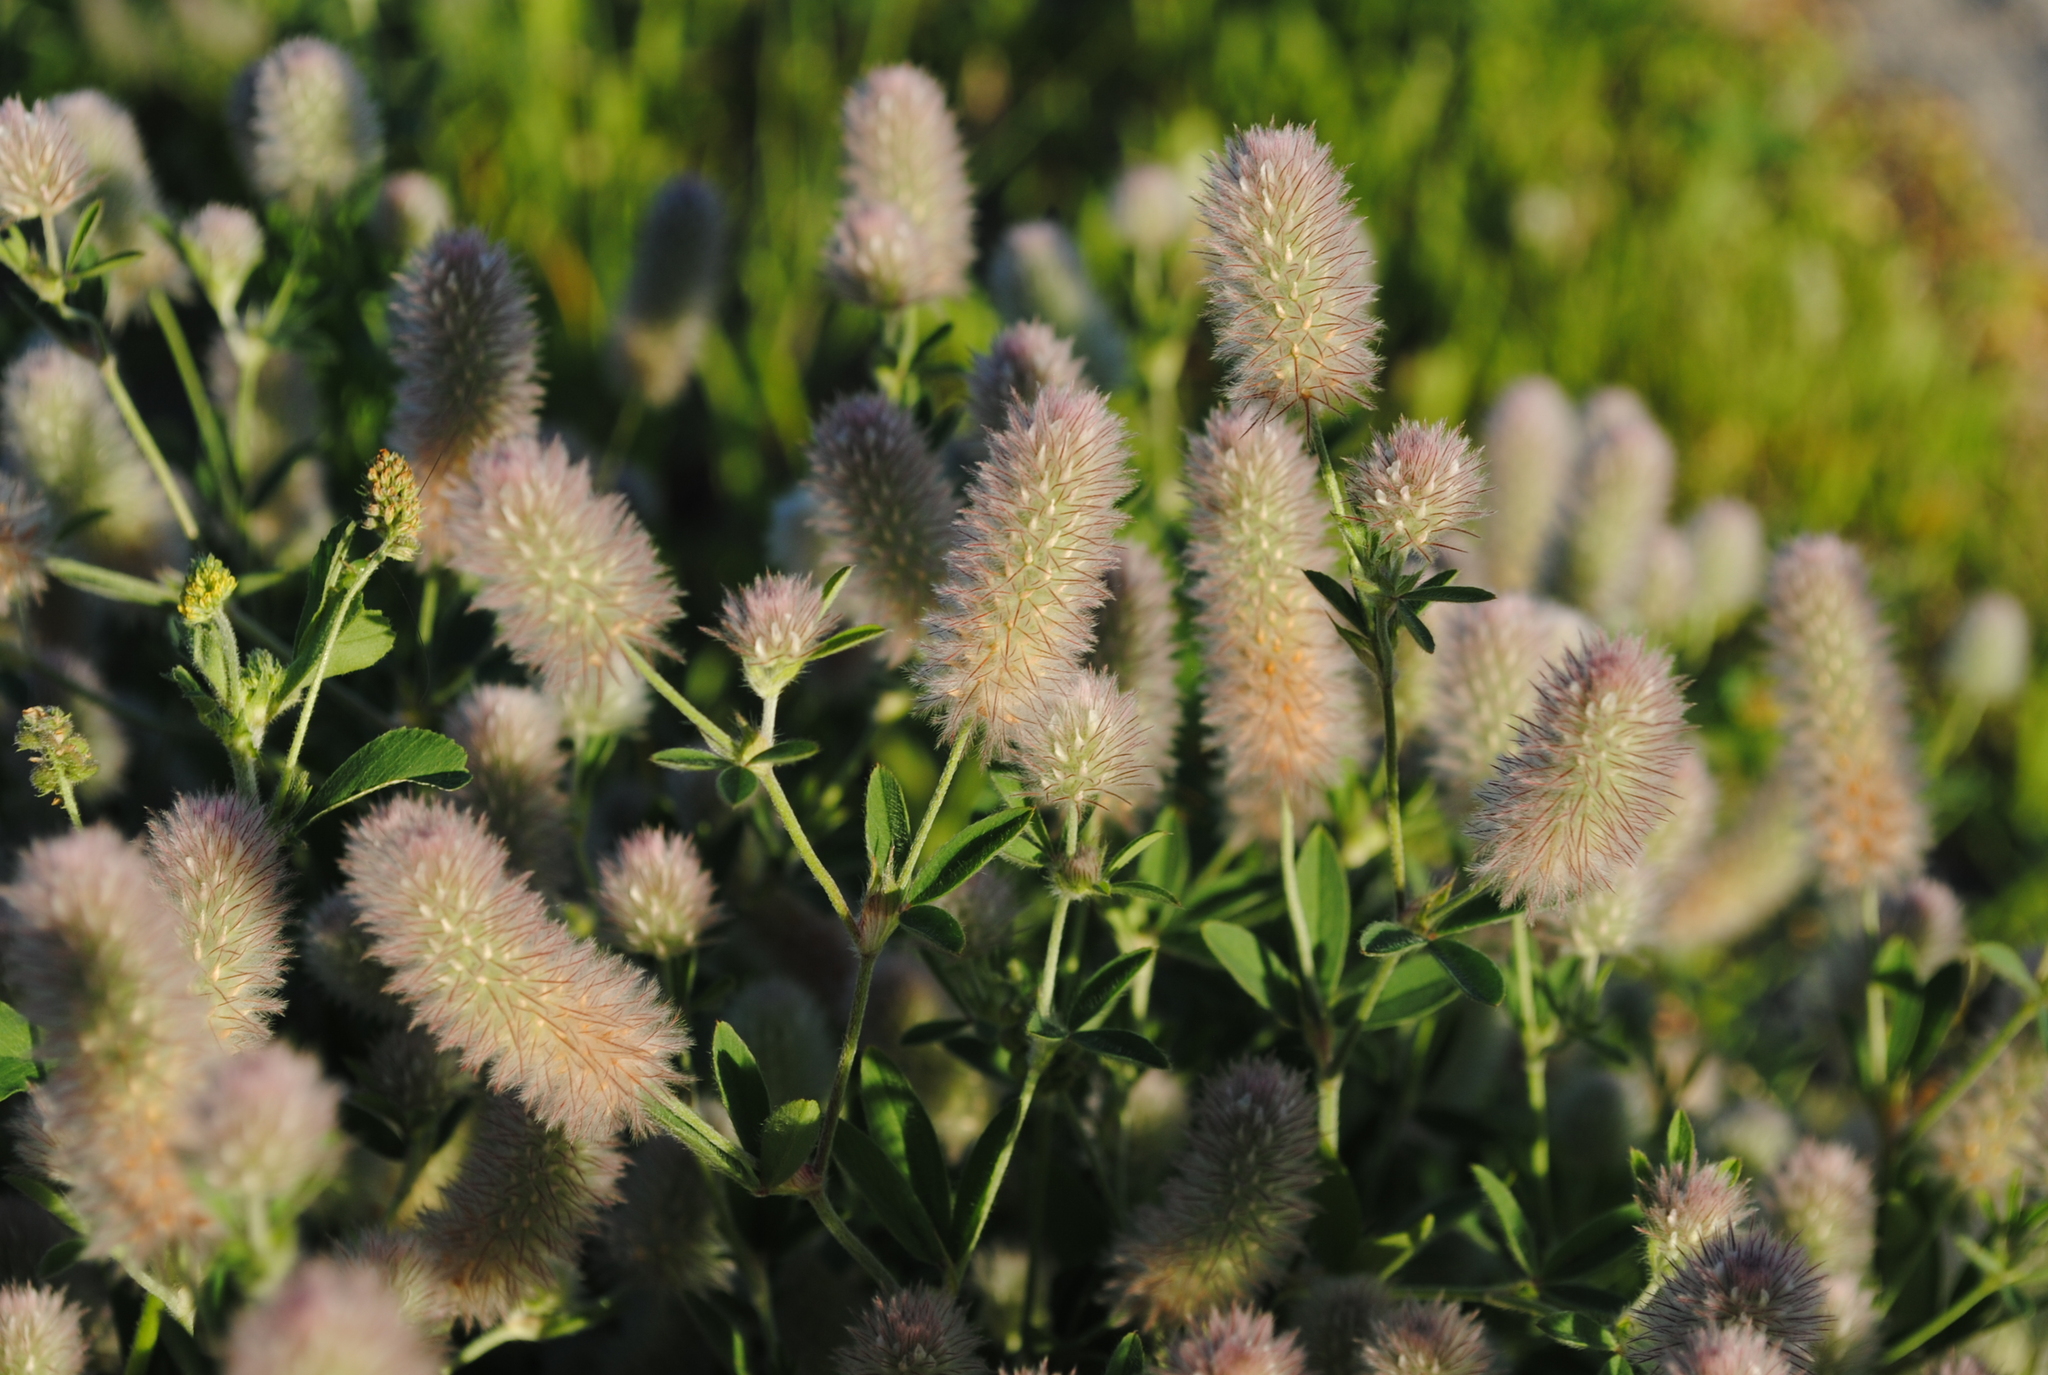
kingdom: Plantae
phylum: Tracheophyta
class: Magnoliopsida
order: Fabales
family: Fabaceae
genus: Trifolium
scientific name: Trifolium arvense
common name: Hare's-foot clover
